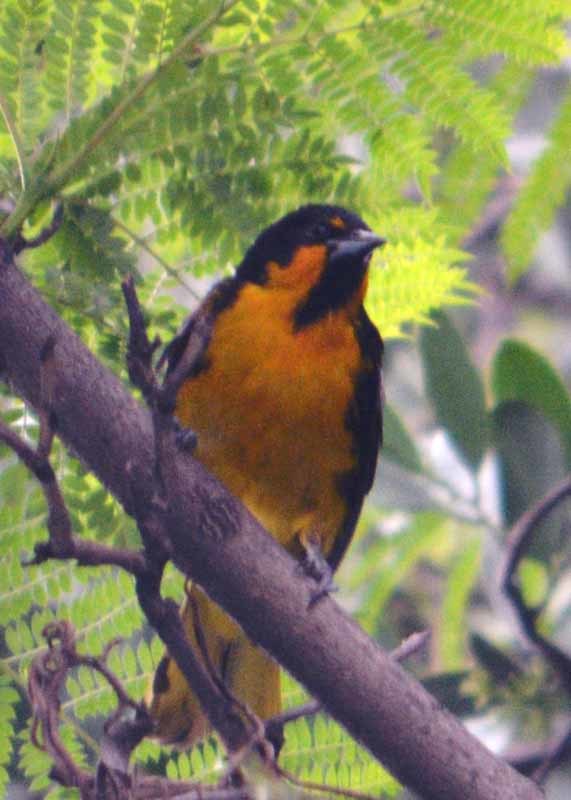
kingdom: Animalia
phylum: Chordata
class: Aves
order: Passeriformes
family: Icteridae
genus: Icterus
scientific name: Icterus abeillei
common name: Black-backed oriole
